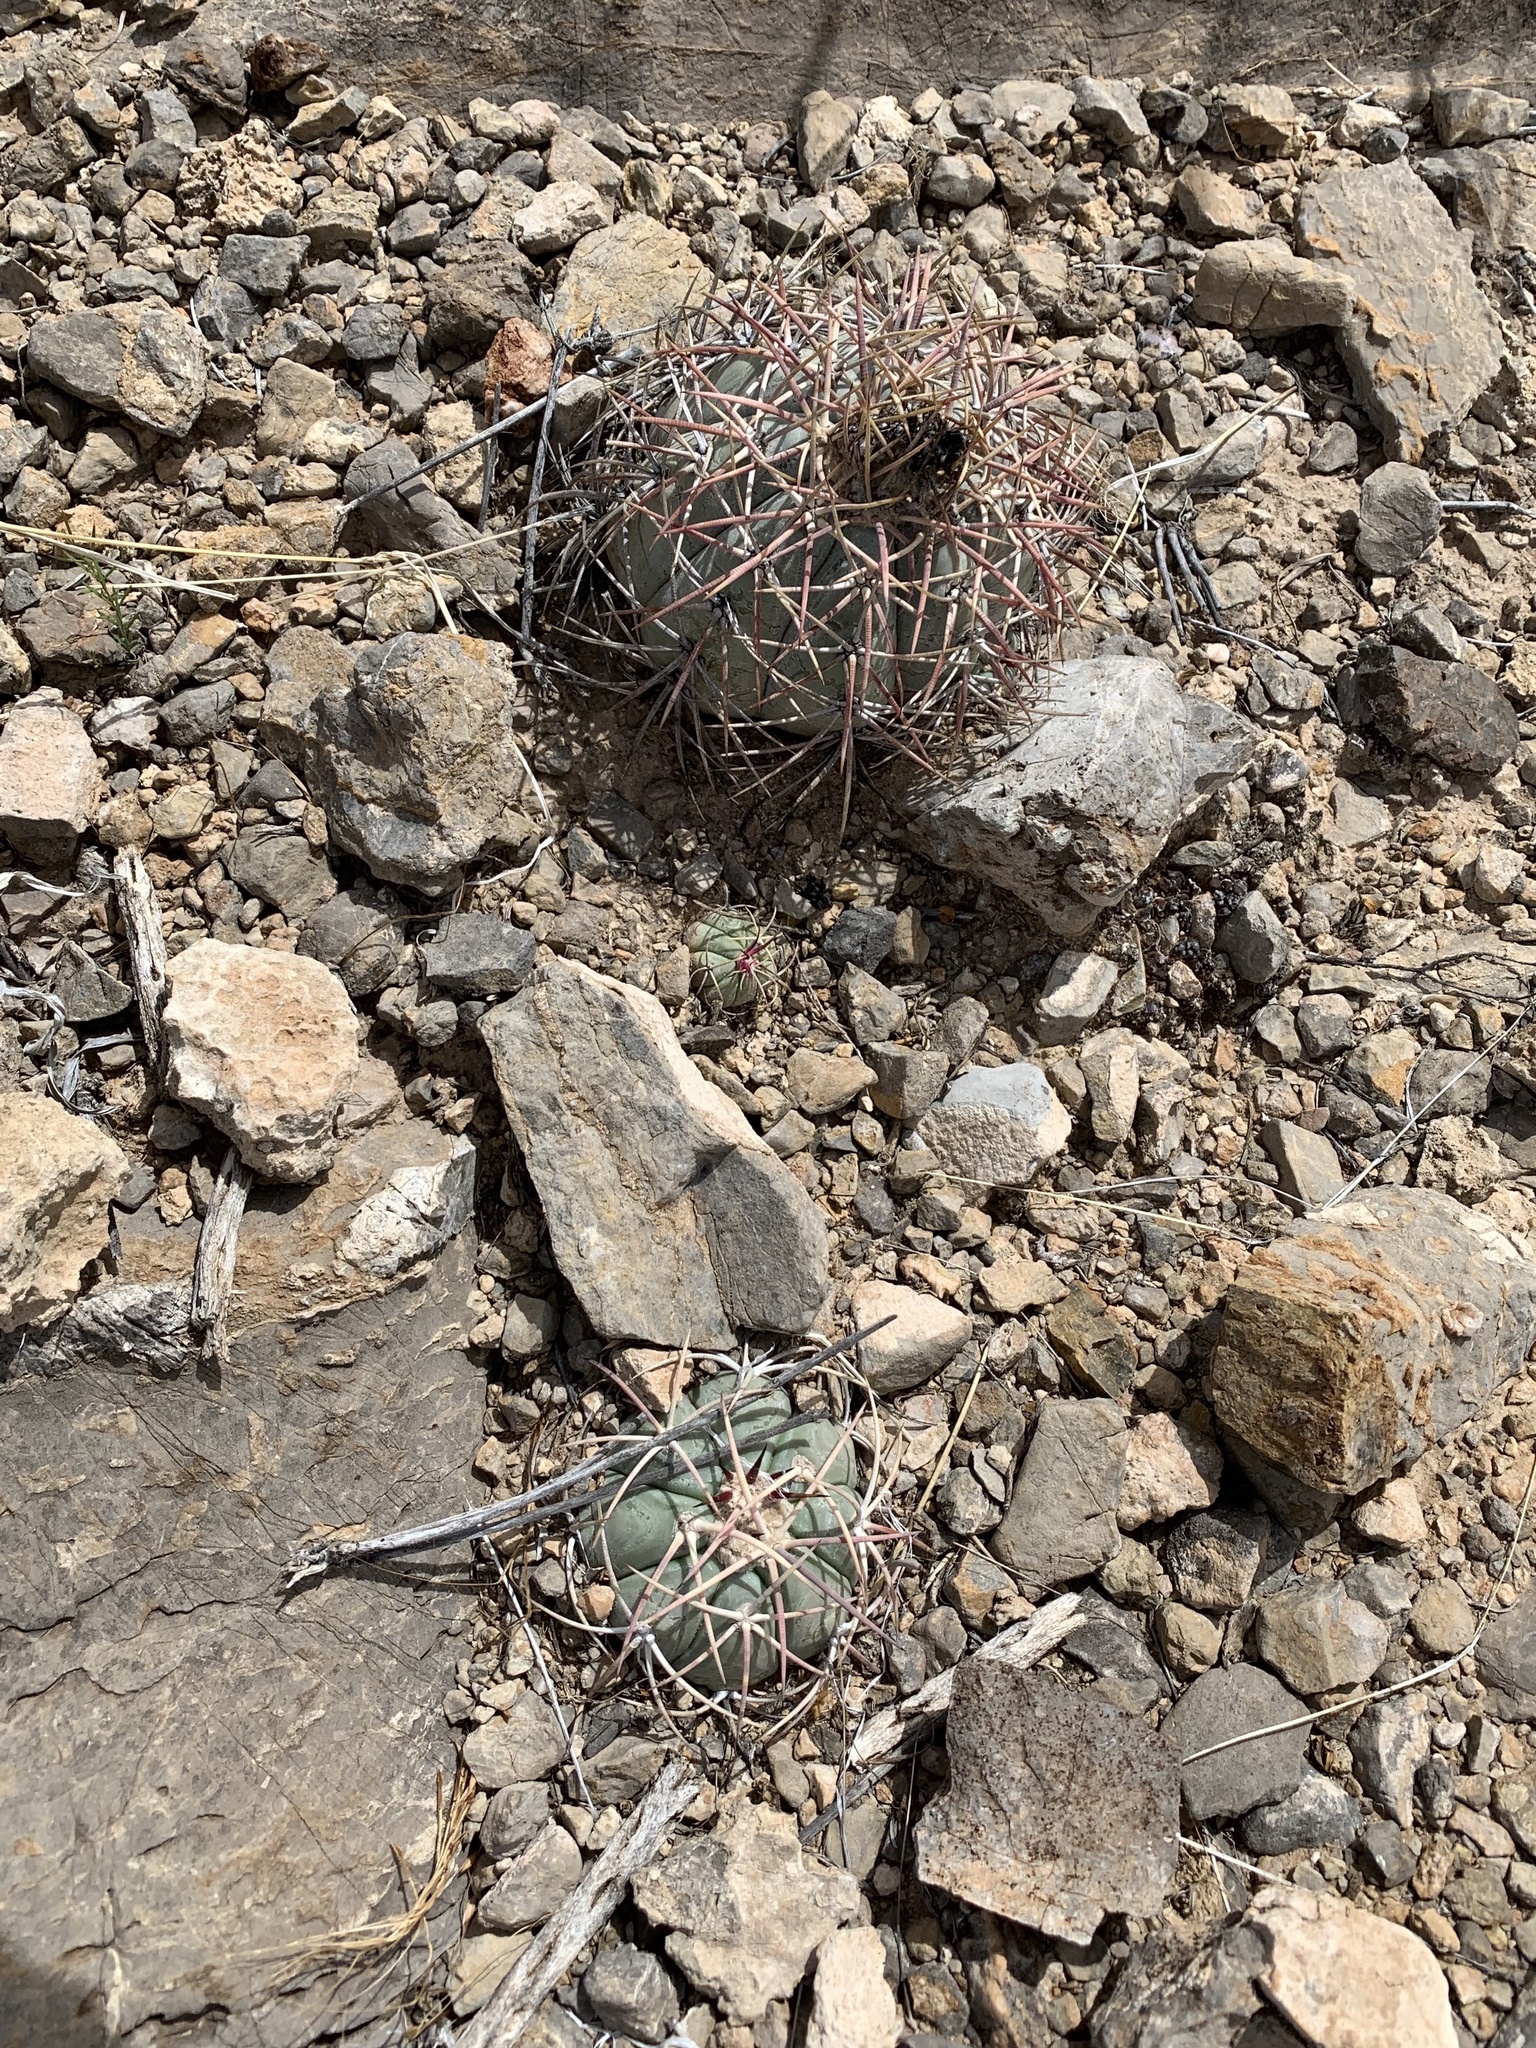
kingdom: Plantae
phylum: Tracheophyta
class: Magnoliopsida
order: Caryophyllales
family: Cactaceae
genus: Echinocactus
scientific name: Echinocactus horizonthalonius
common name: Devilshead
